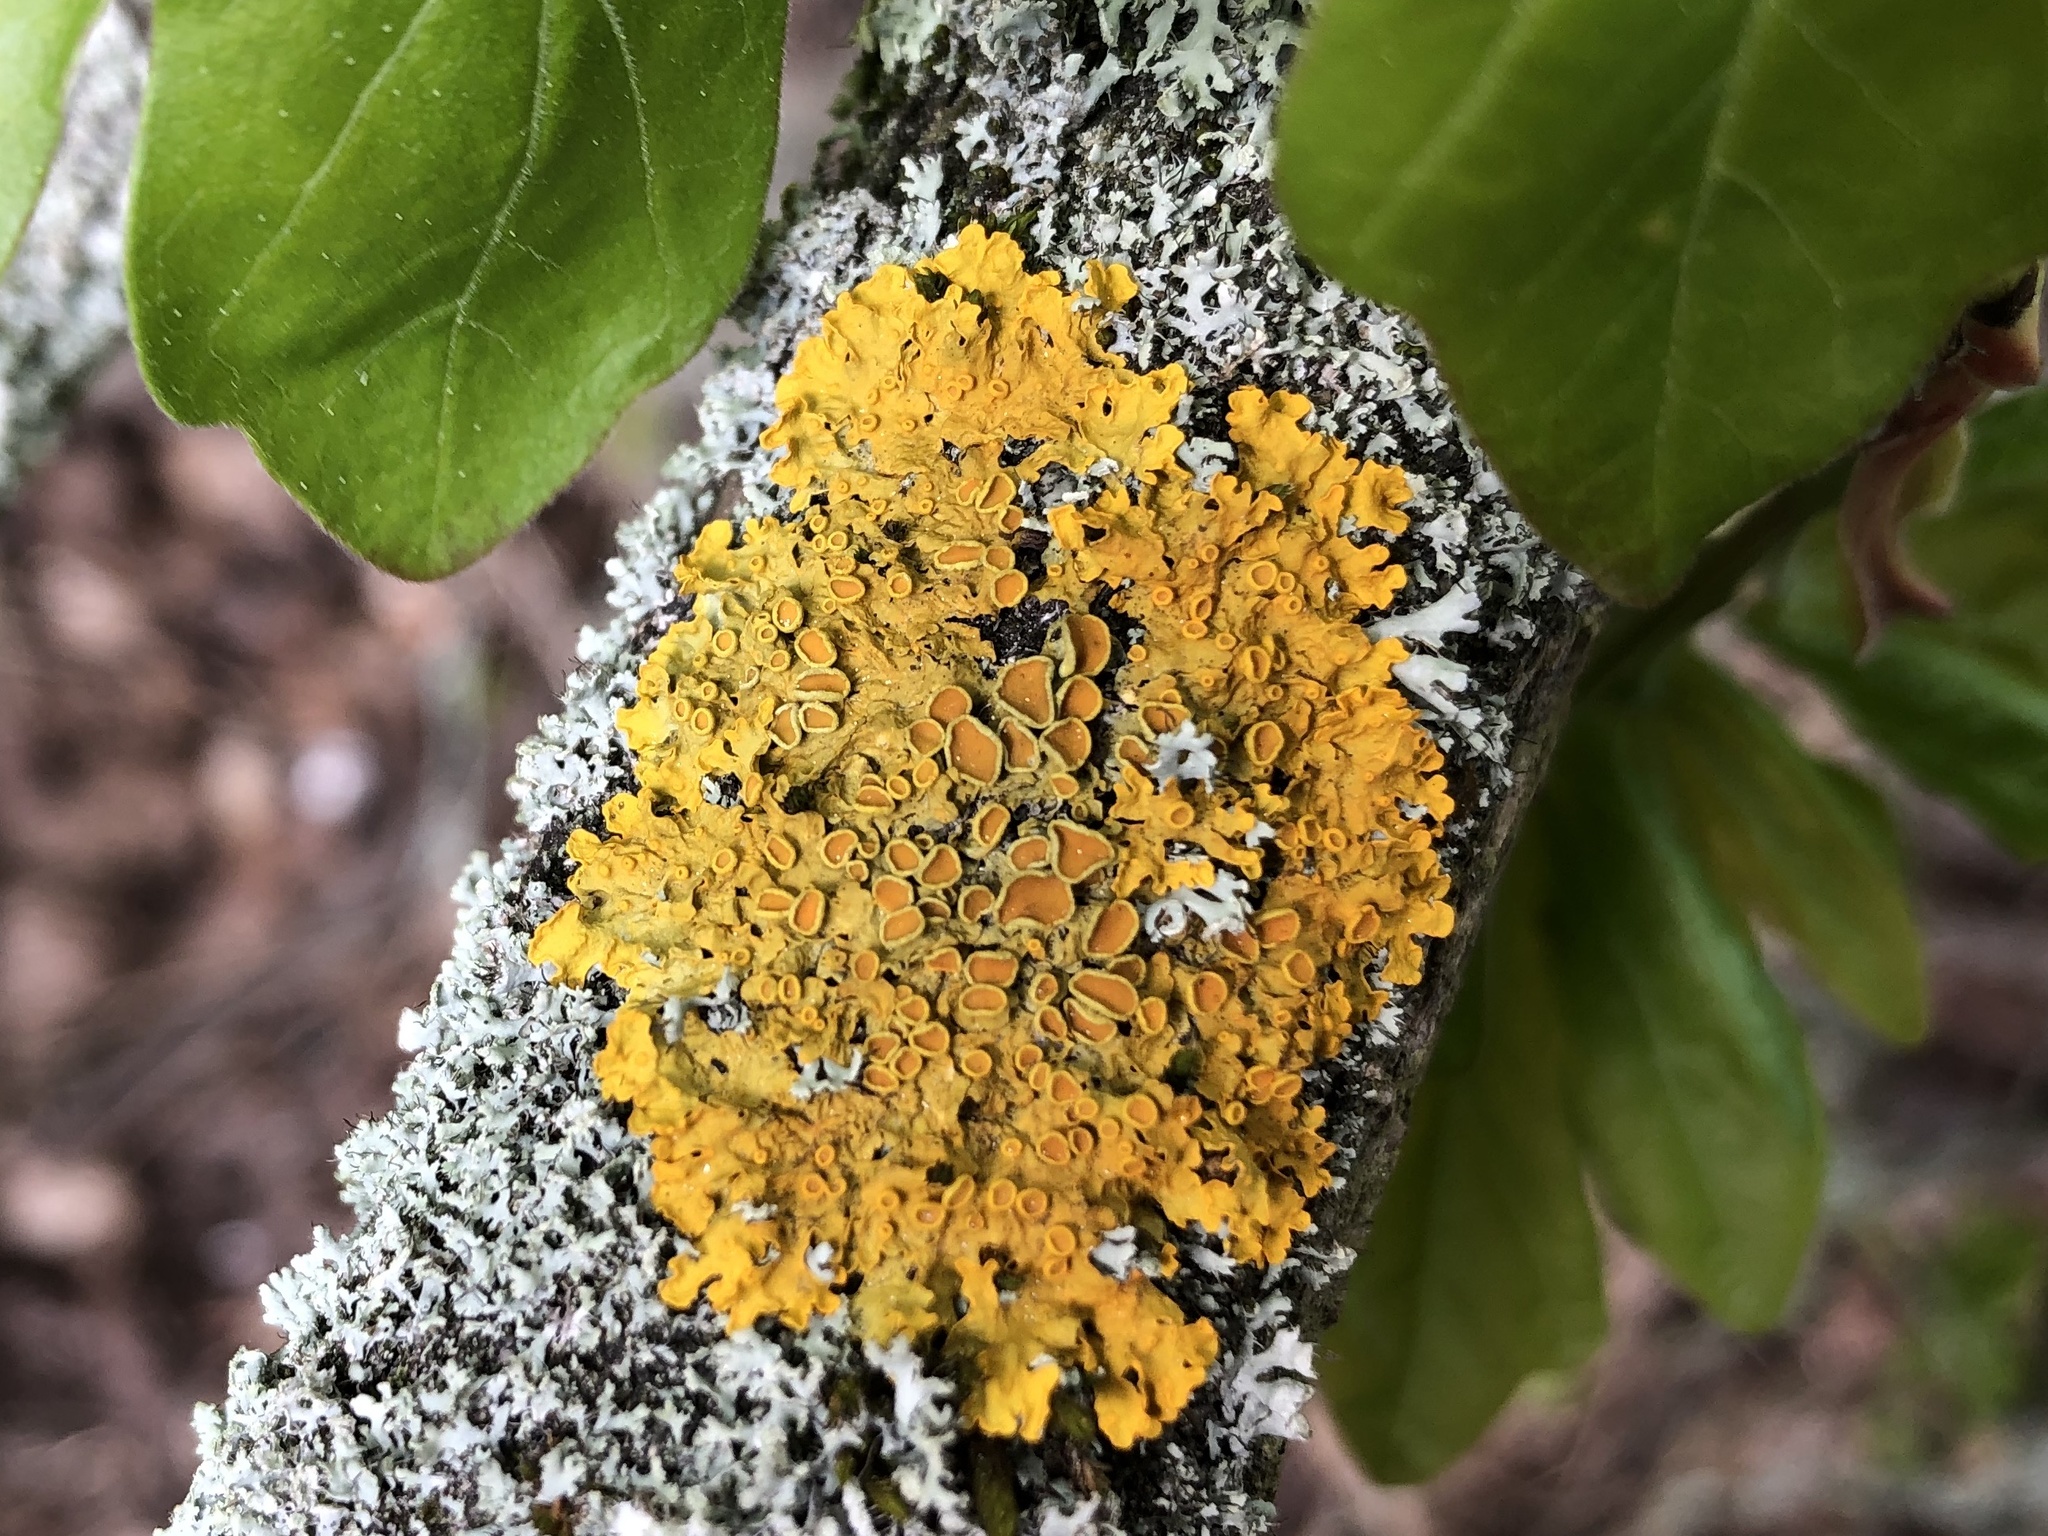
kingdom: Fungi
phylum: Ascomycota
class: Lecanoromycetes
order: Teloschistales
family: Teloschistaceae
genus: Xanthoria
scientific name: Xanthoria parietina
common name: Common orange lichen
